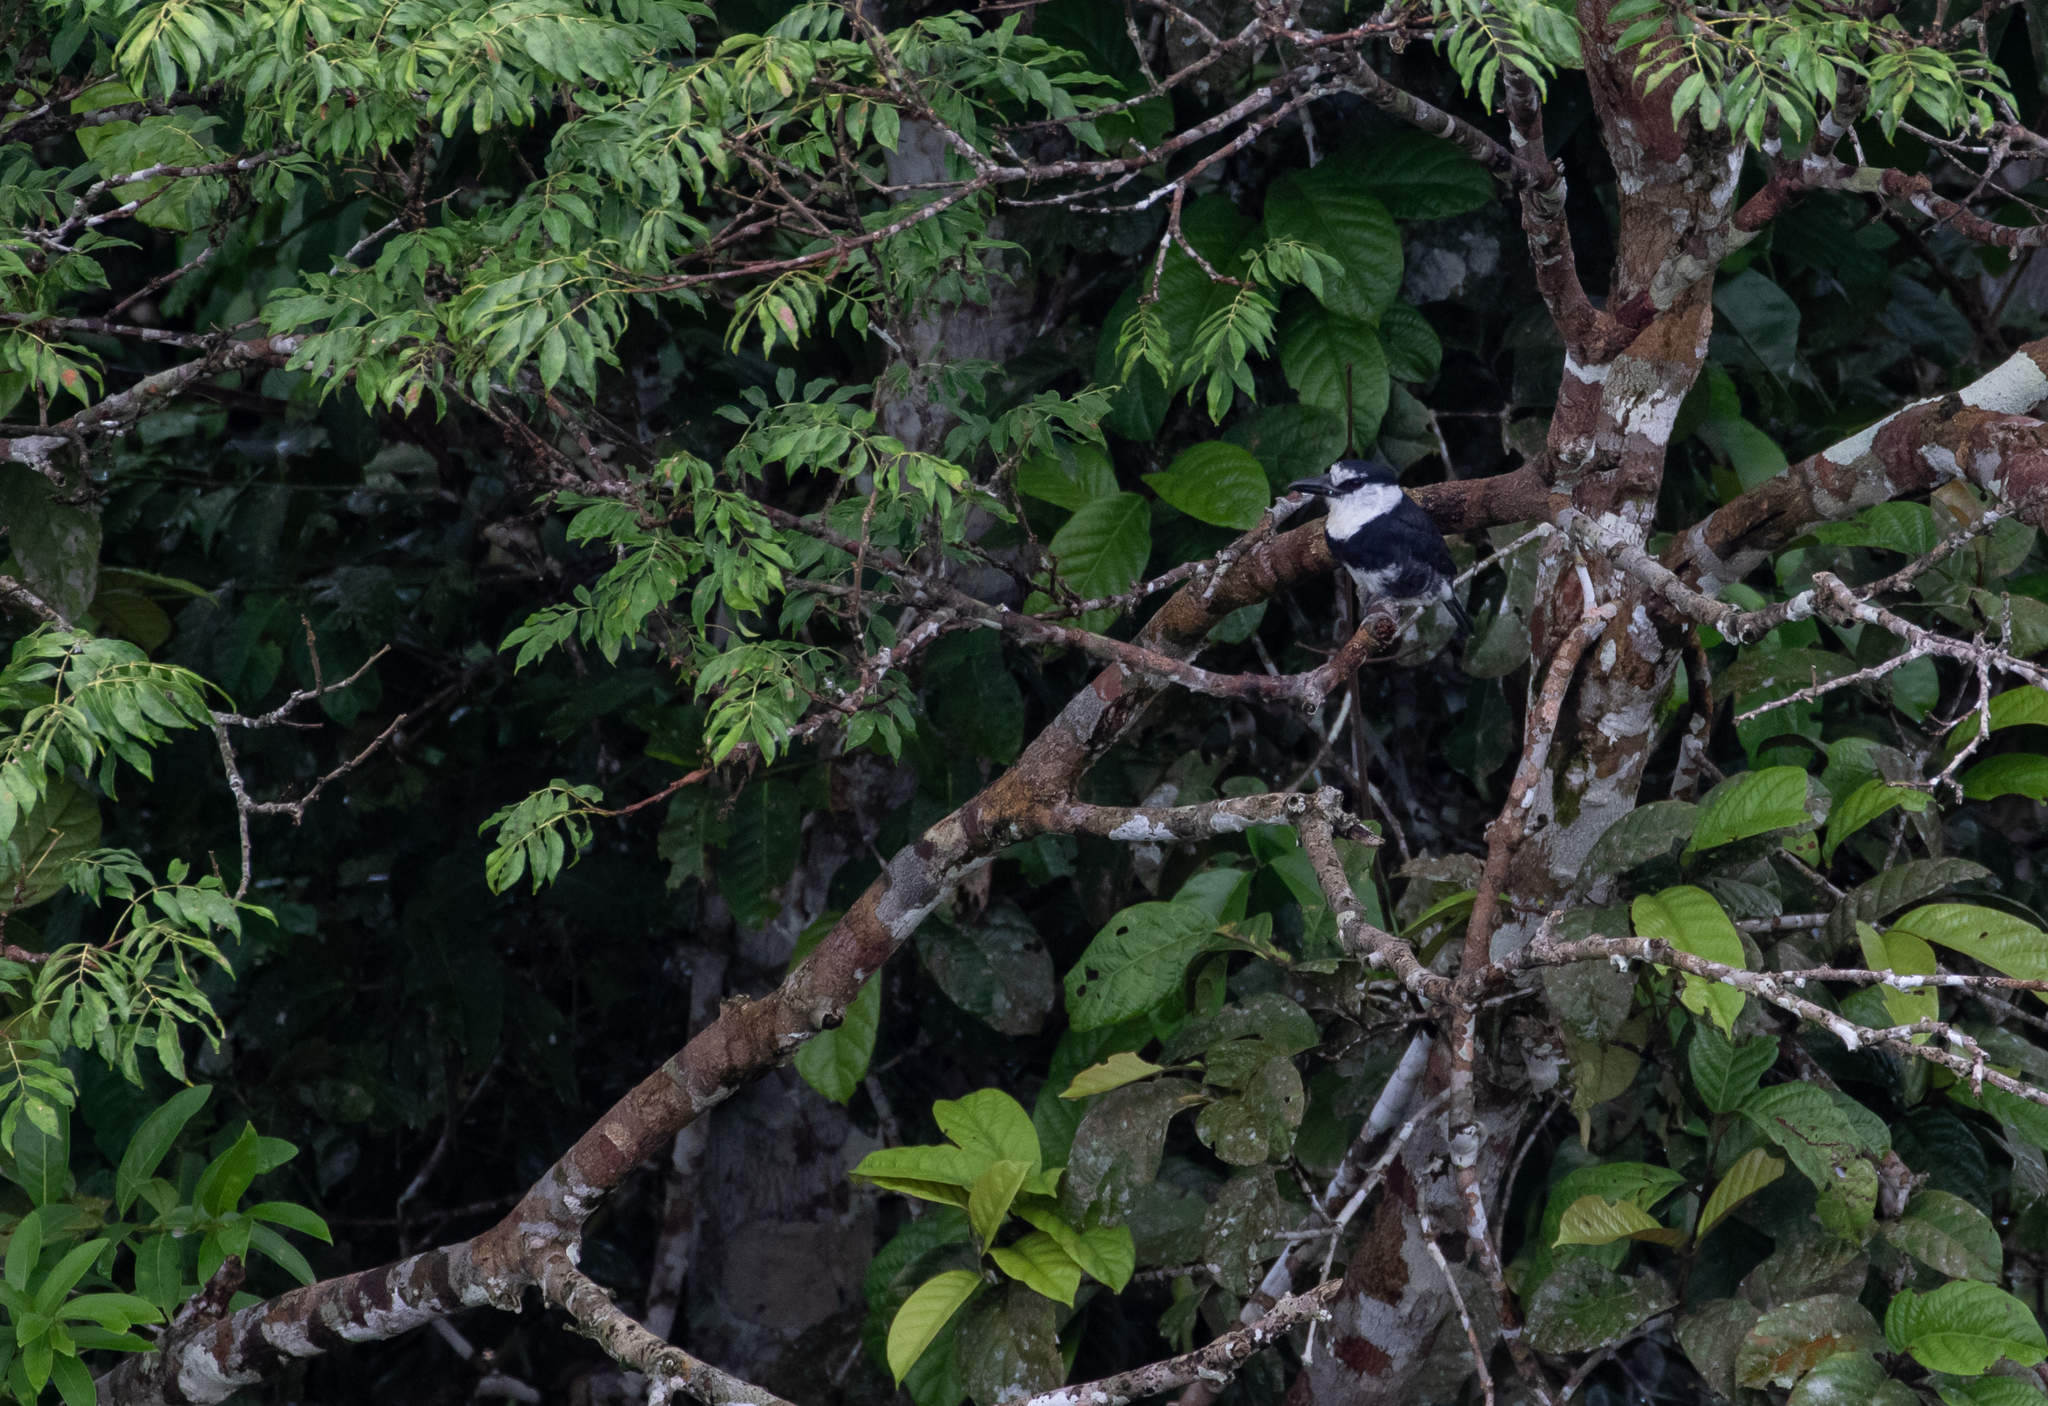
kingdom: Animalia
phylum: Chordata
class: Aves
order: Piciformes
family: Bucconidae
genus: Notharchus
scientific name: Notharchus hyperrhynchus
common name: White-necked puffbird
